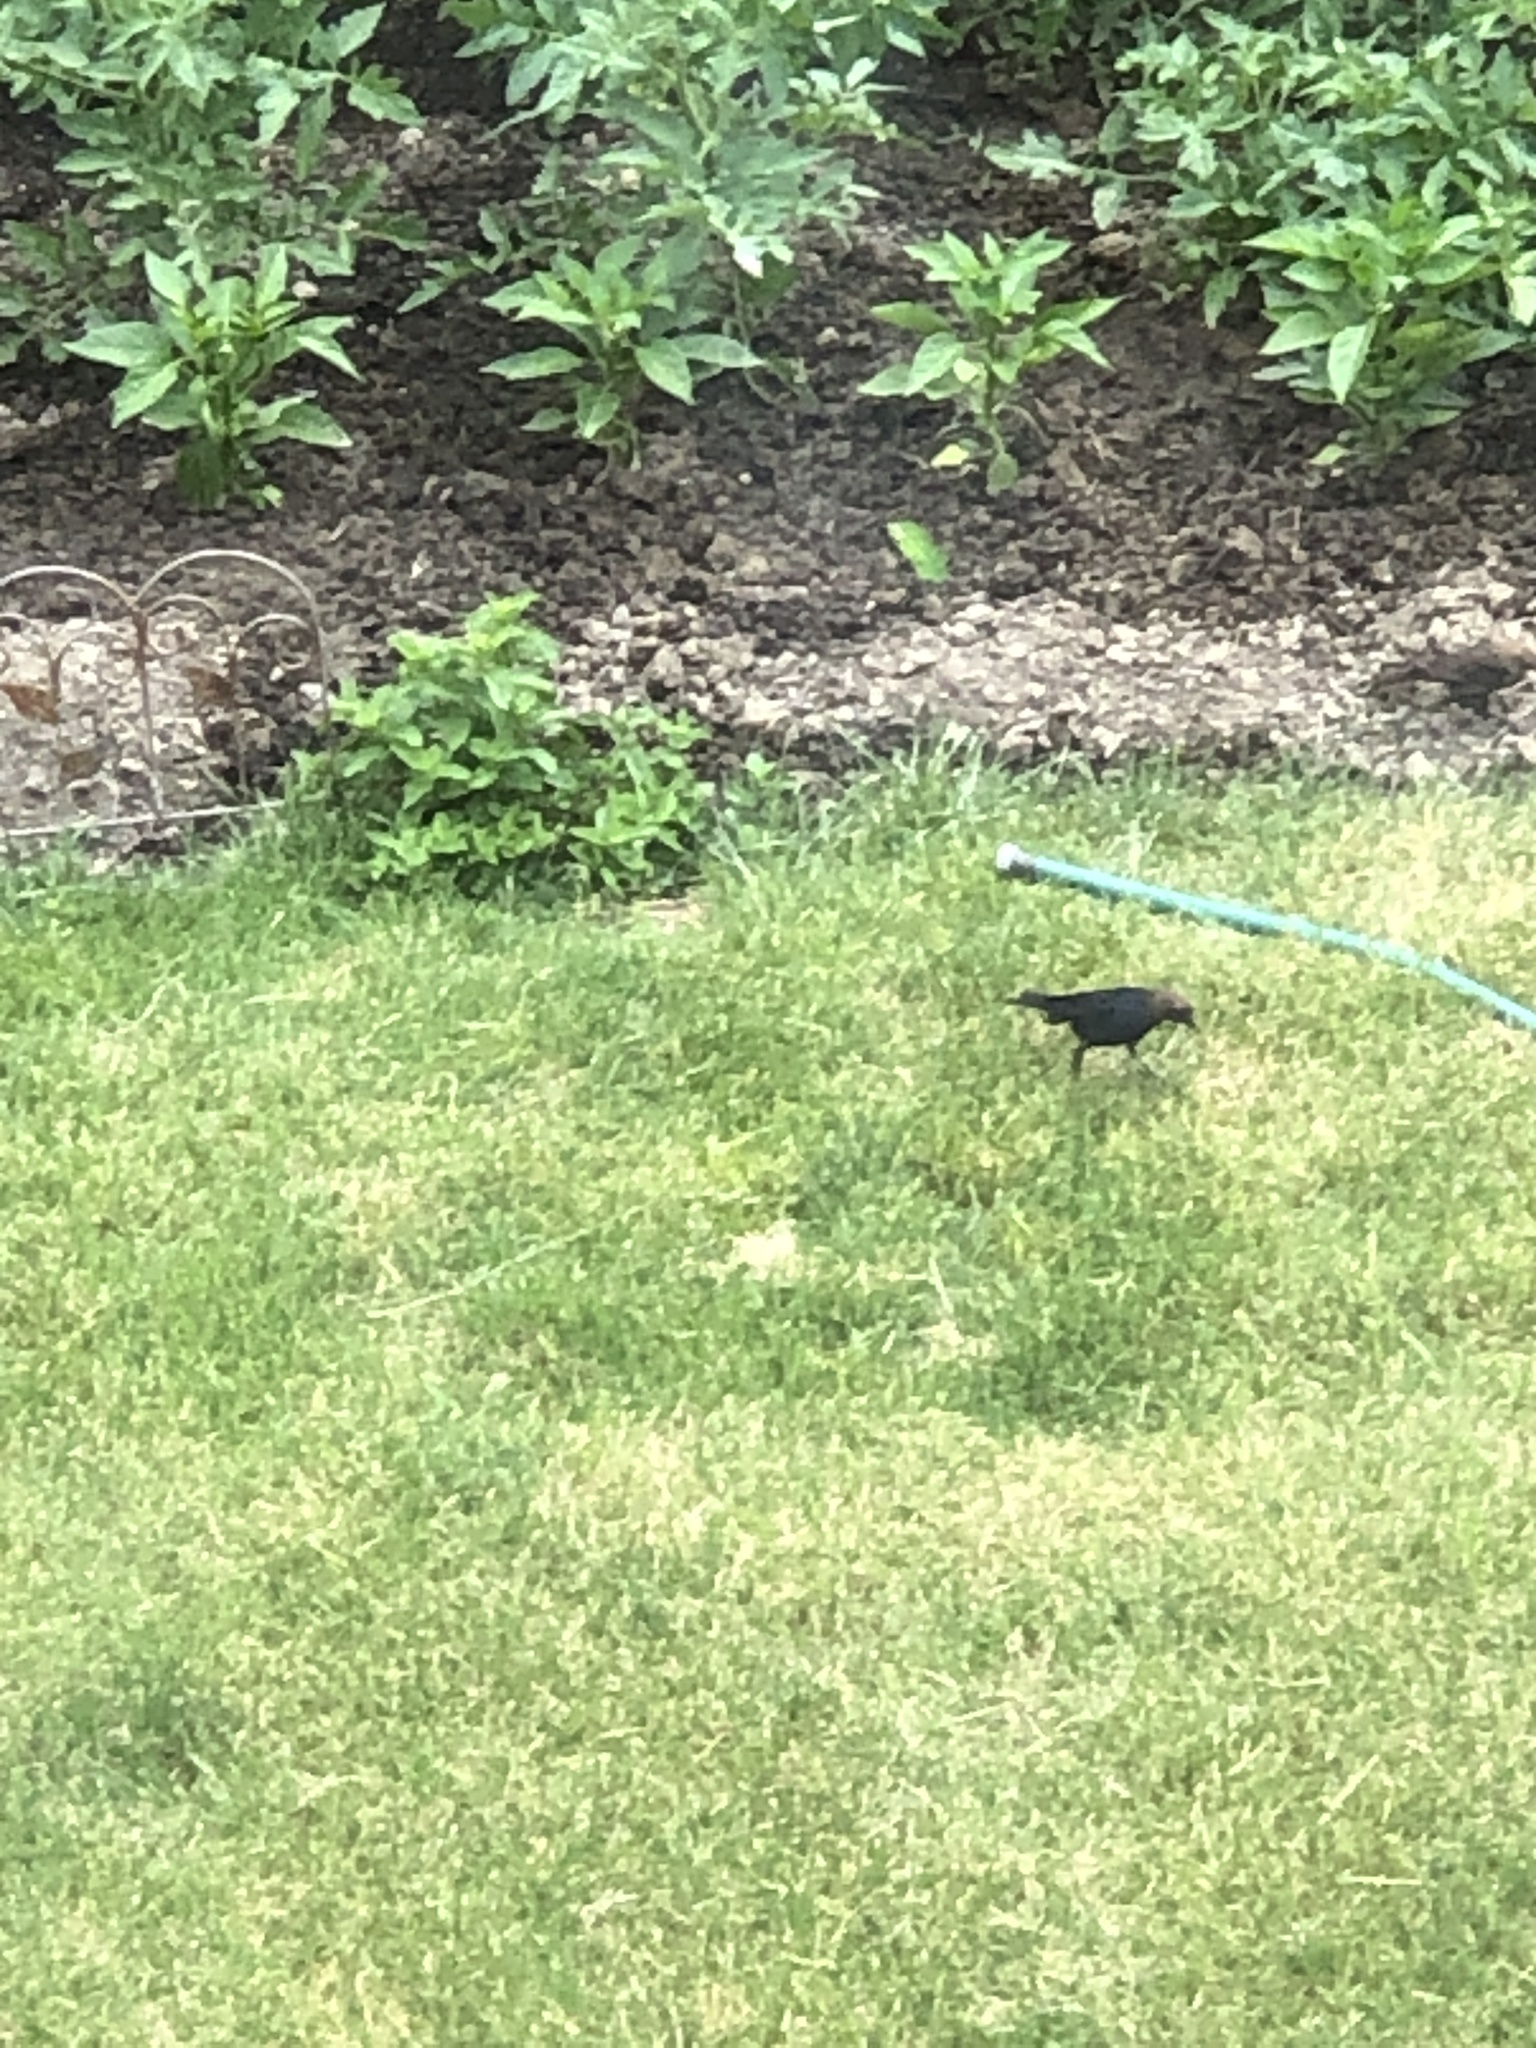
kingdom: Animalia
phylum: Chordata
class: Aves
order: Passeriformes
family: Icteridae
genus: Molothrus
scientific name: Molothrus ater
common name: Brown-headed cowbird
